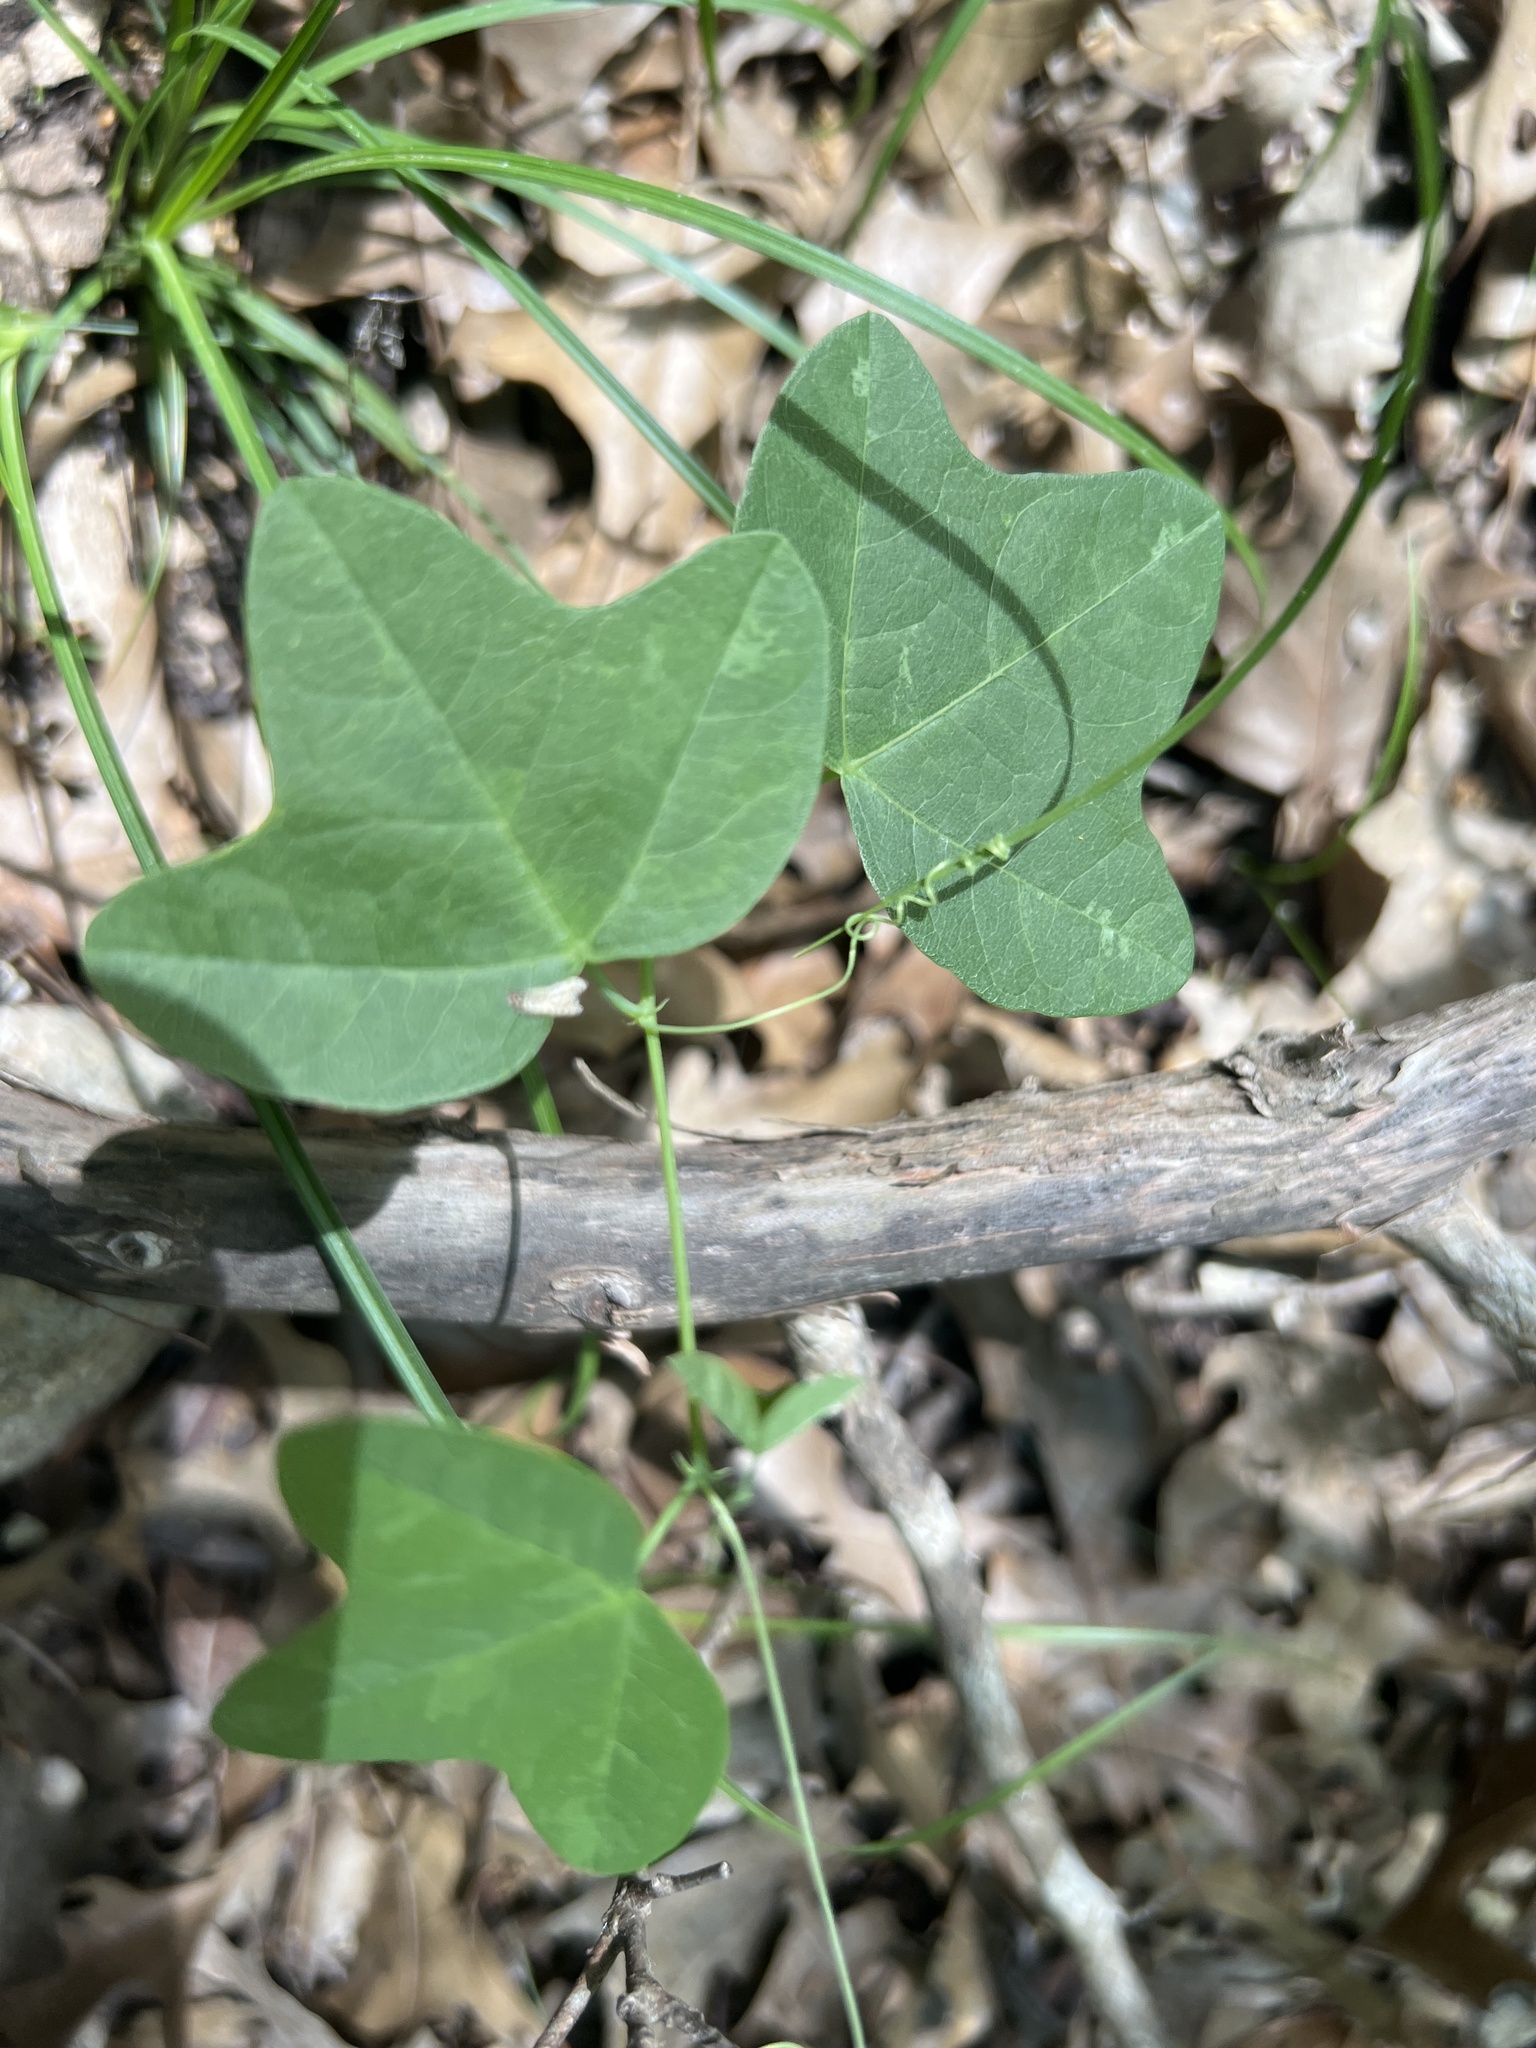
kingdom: Plantae
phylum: Tracheophyta
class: Magnoliopsida
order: Malpighiales
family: Passifloraceae
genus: Passiflora
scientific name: Passiflora lutea
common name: Yellow passionflower
